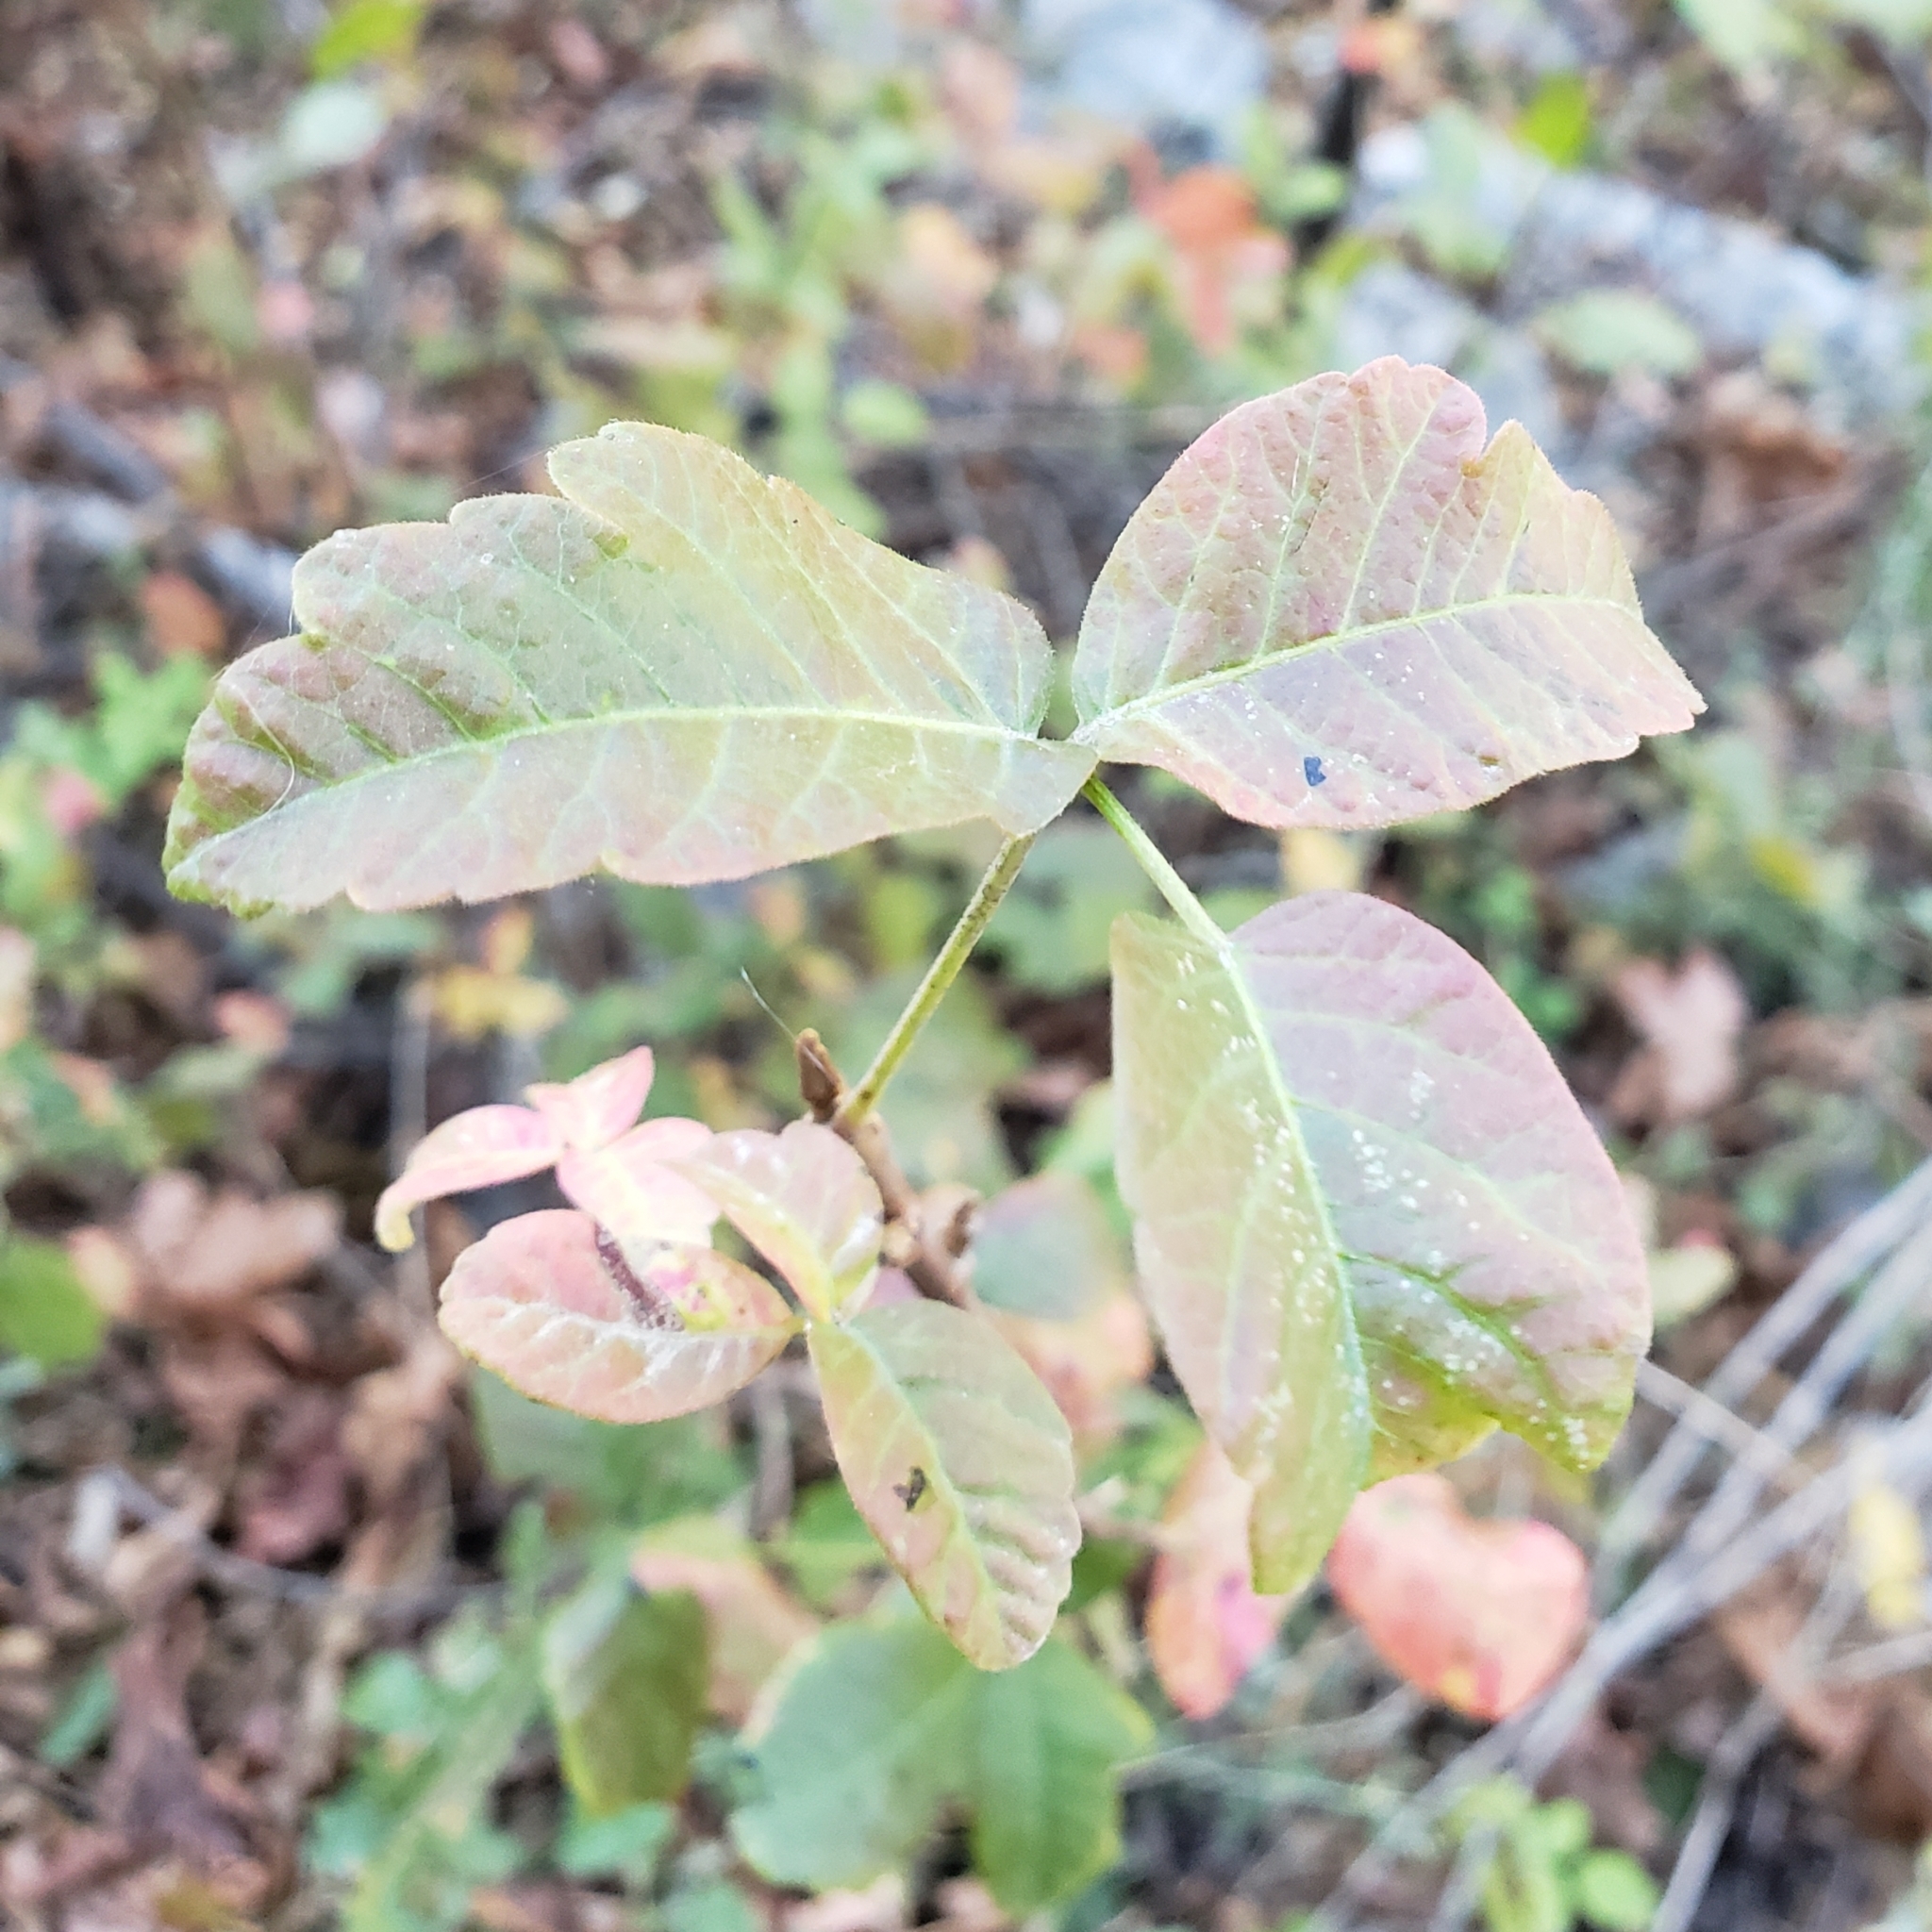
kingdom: Plantae
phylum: Tracheophyta
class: Magnoliopsida
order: Sapindales
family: Anacardiaceae
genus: Toxicodendron
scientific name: Toxicodendron diversilobum
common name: Pacific poison-oak
